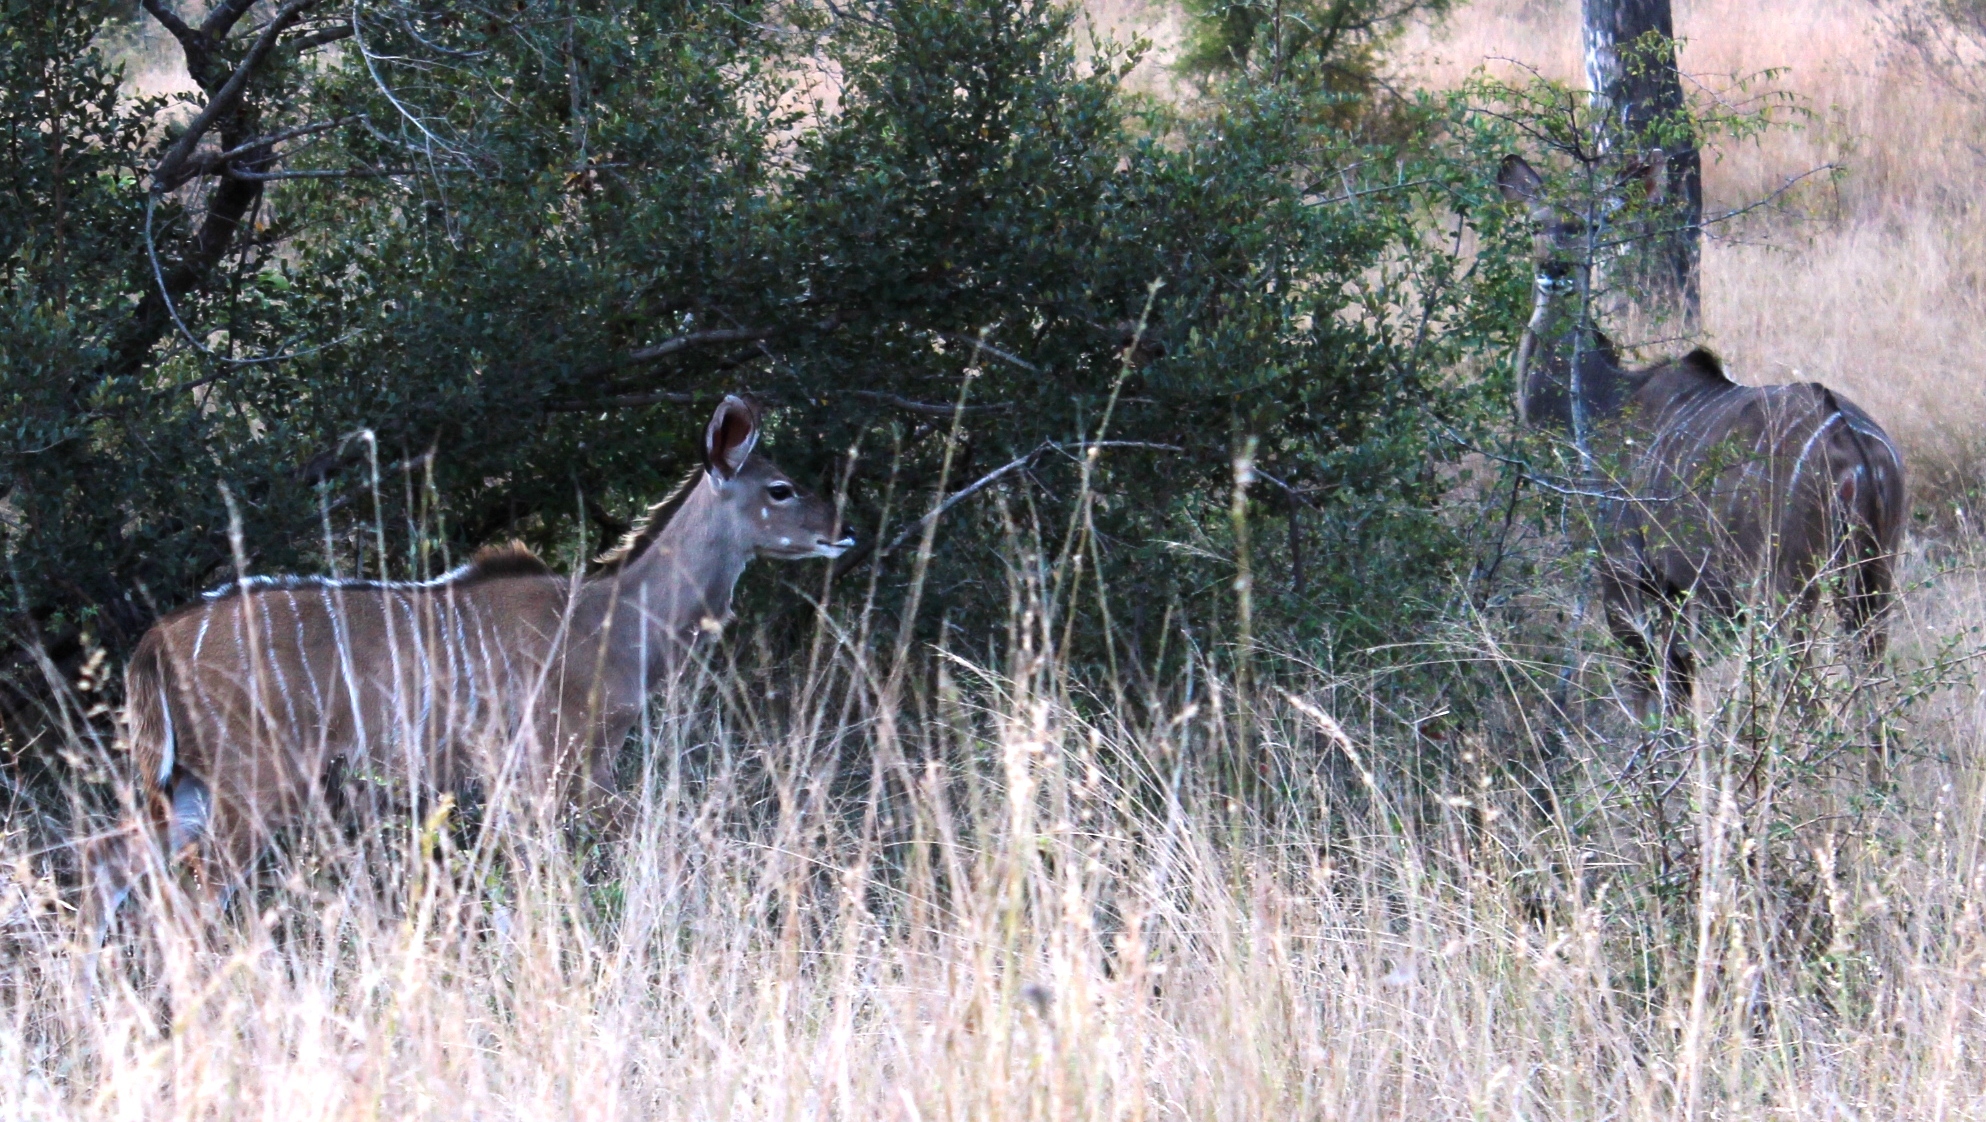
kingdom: Animalia
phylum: Chordata
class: Mammalia
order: Artiodactyla
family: Bovidae
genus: Tragelaphus
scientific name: Tragelaphus strepsiceros
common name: Greater kudu
